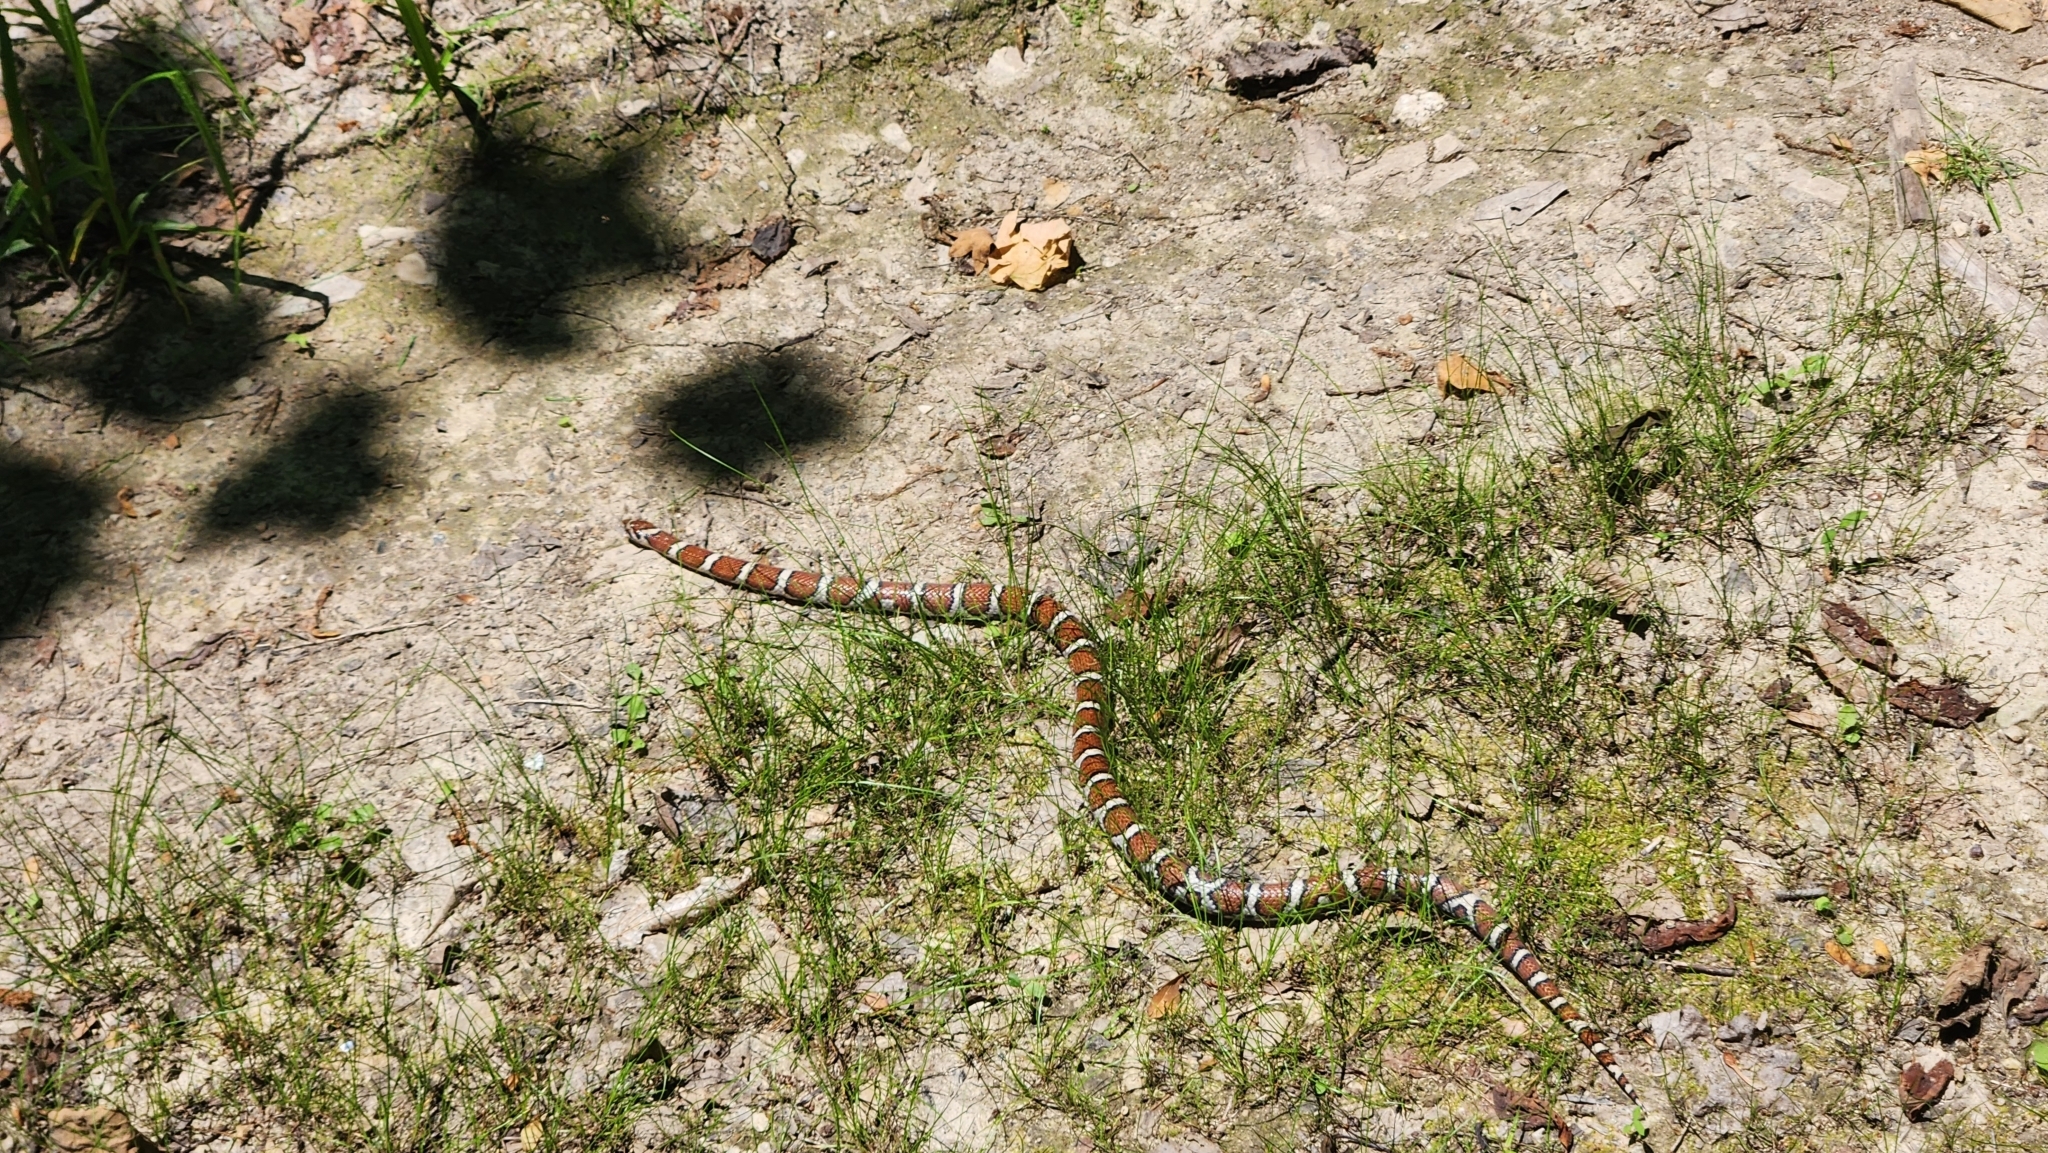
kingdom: Animalia
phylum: Chordata
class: Squamata
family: Colubridae
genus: Lampropeltis
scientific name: Lampropeltis triangulum
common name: Eastern milksnake
